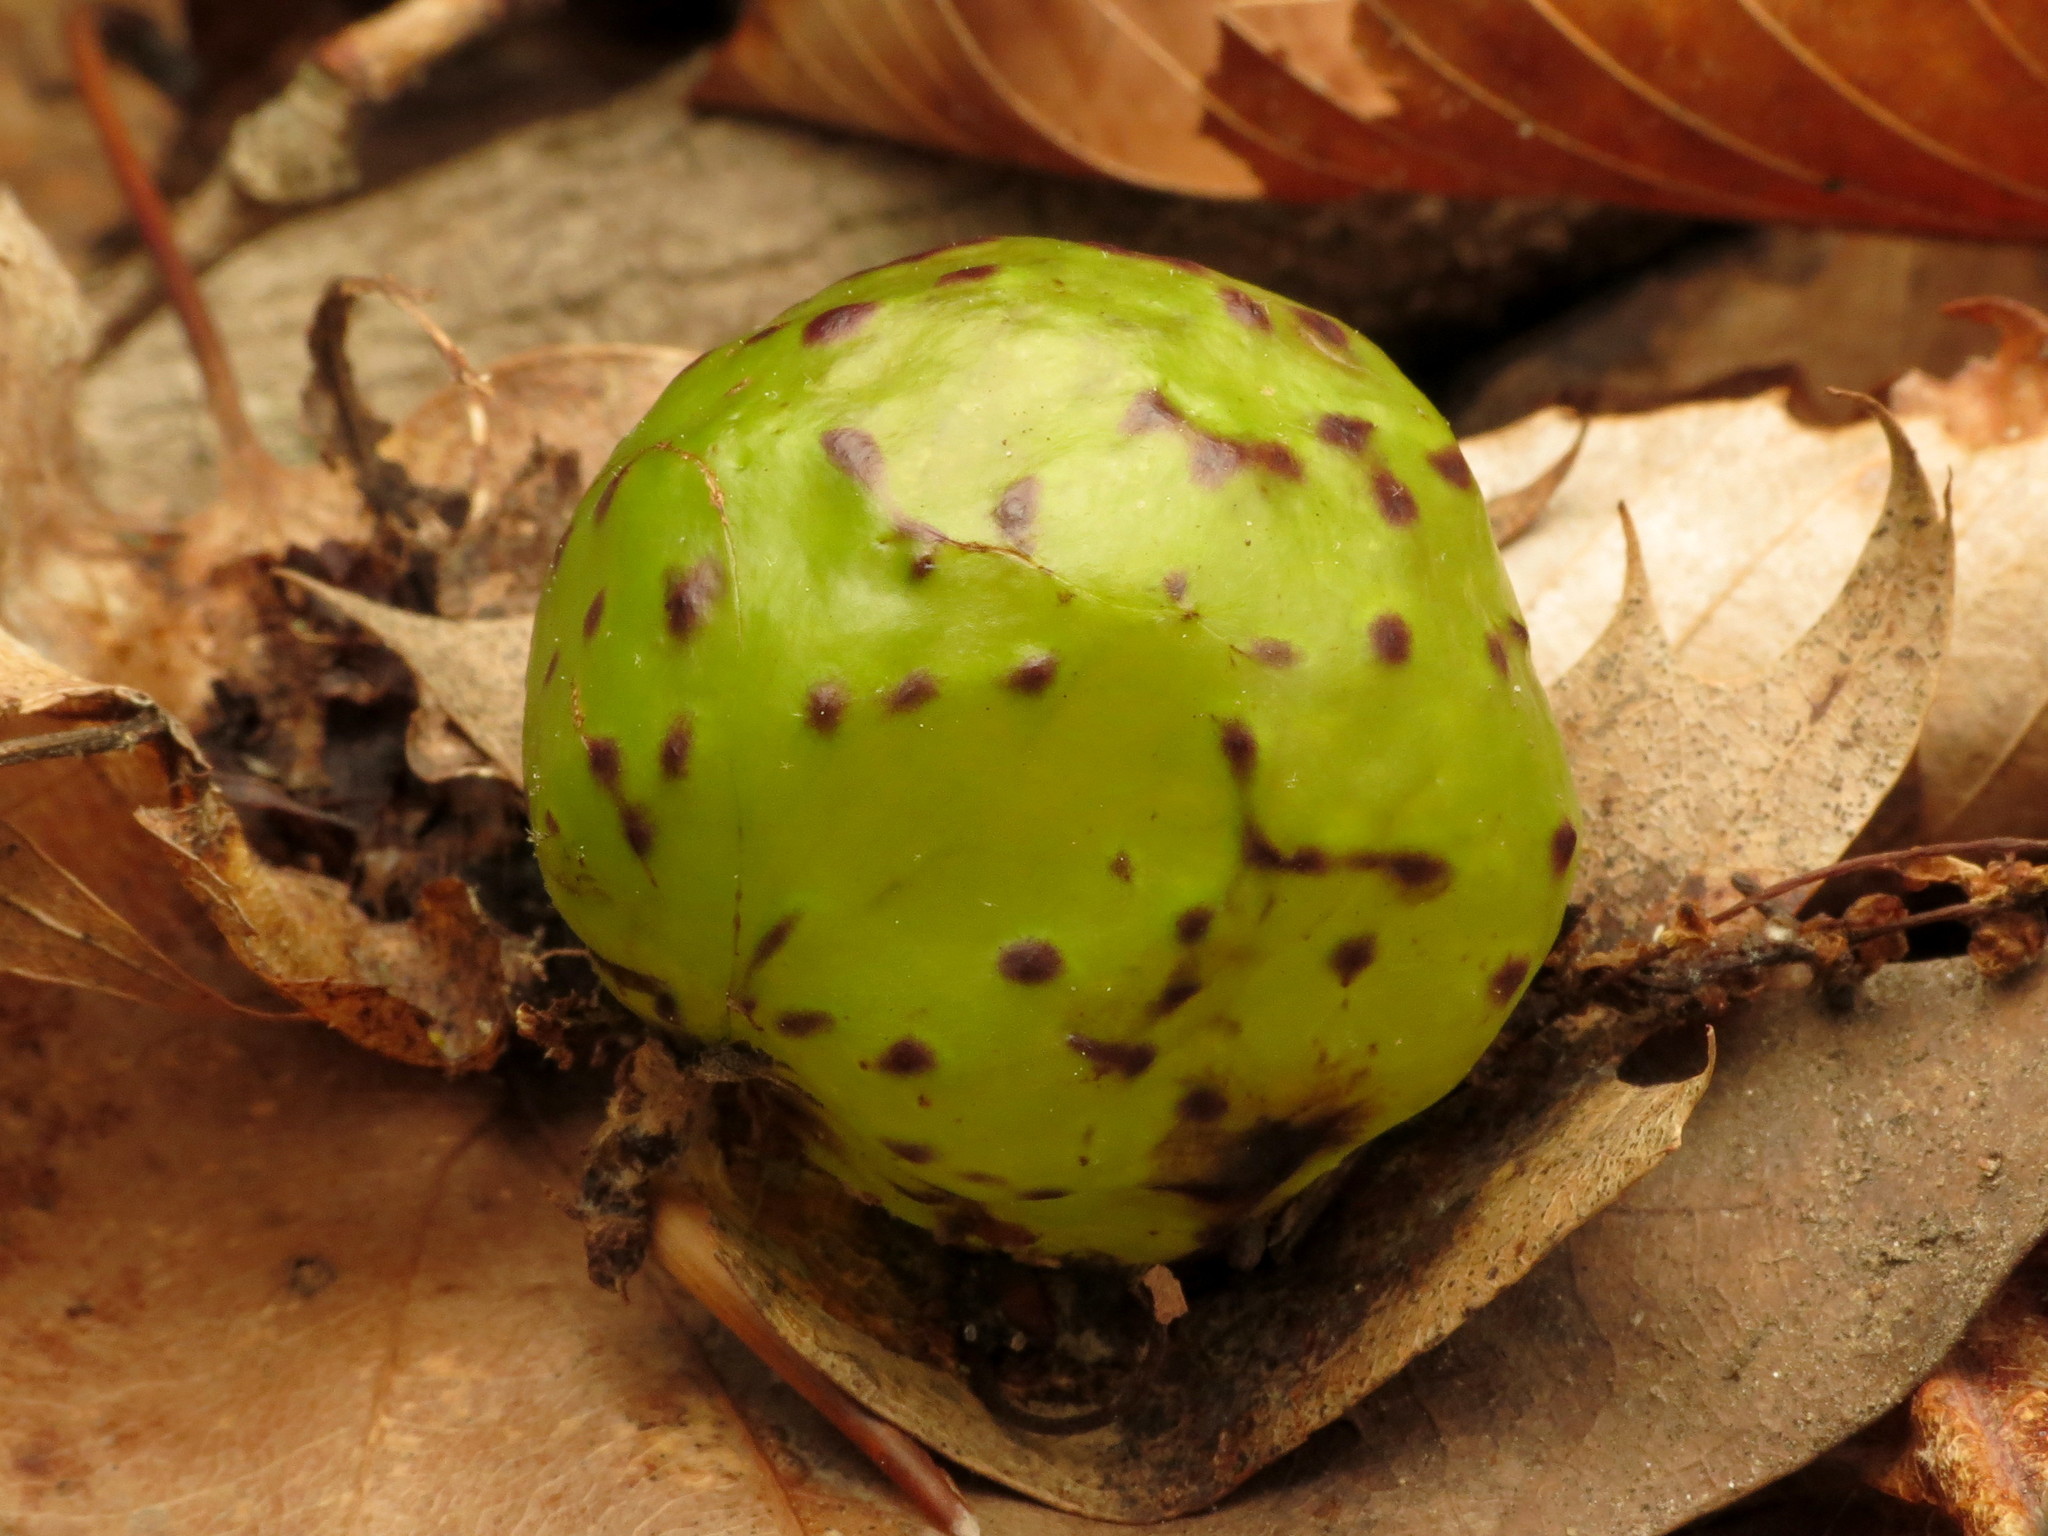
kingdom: Animalia
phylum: Arthropoda
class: Insecta
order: Hymenoptera
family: Cynipidae
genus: Amphibolips
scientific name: Amphibolips
